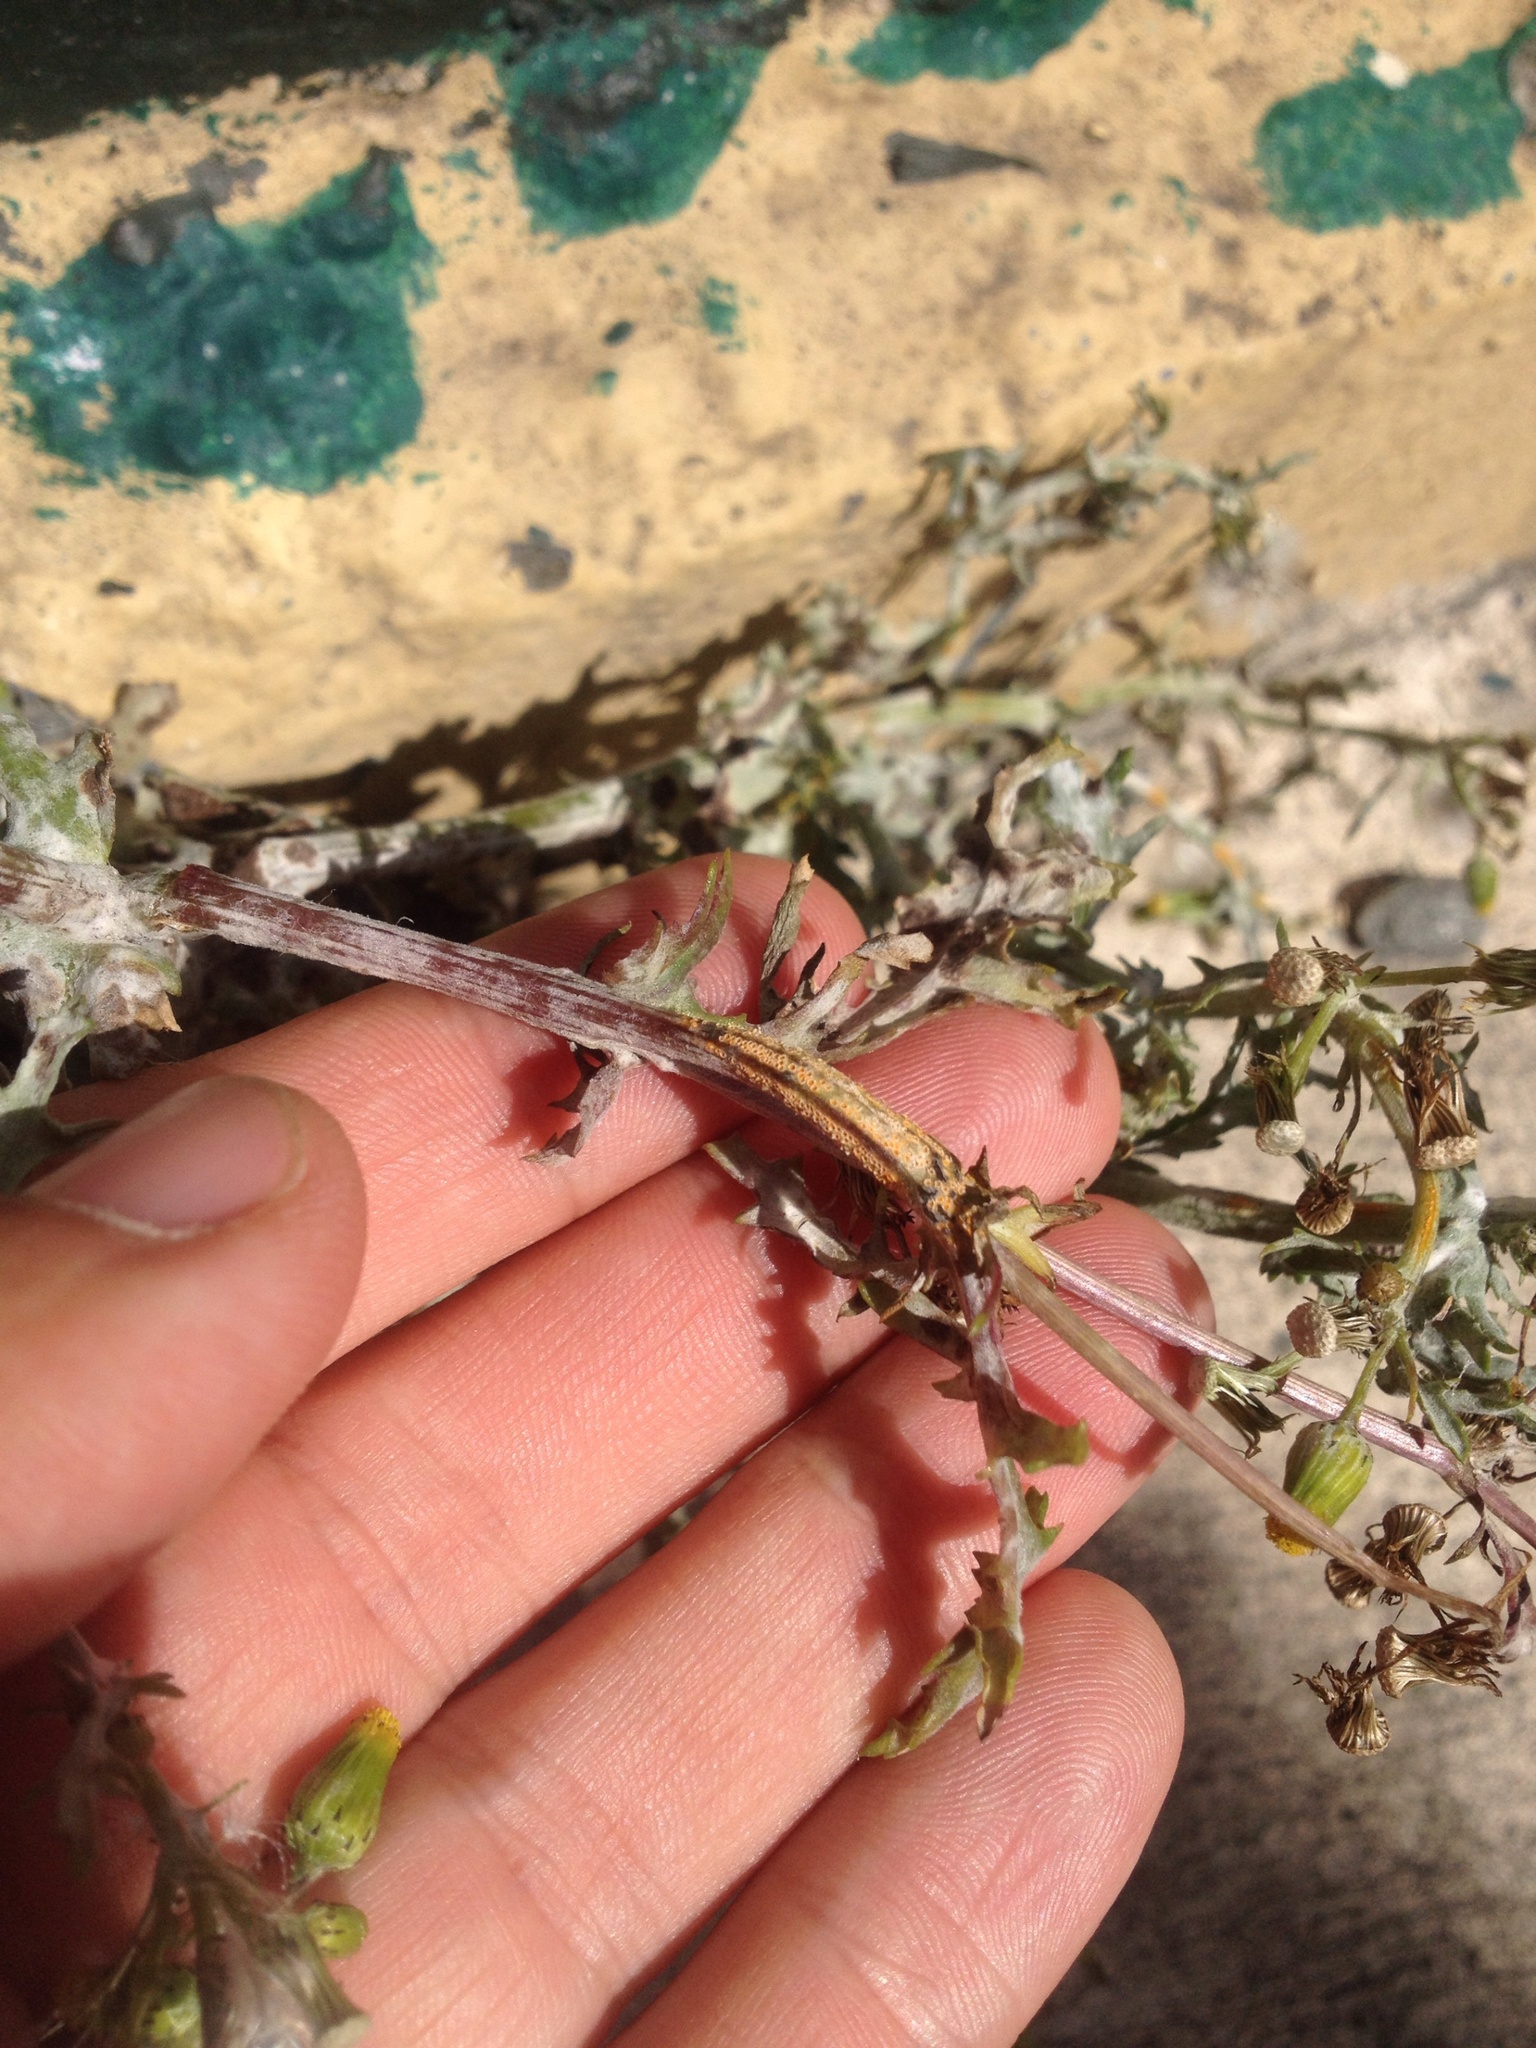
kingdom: Fungi
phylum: Basidiomycota
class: Pucciniomycetes
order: Pucciniales
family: Pucciniaceae
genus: Puccinia
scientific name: Puccinia lagenophorae
